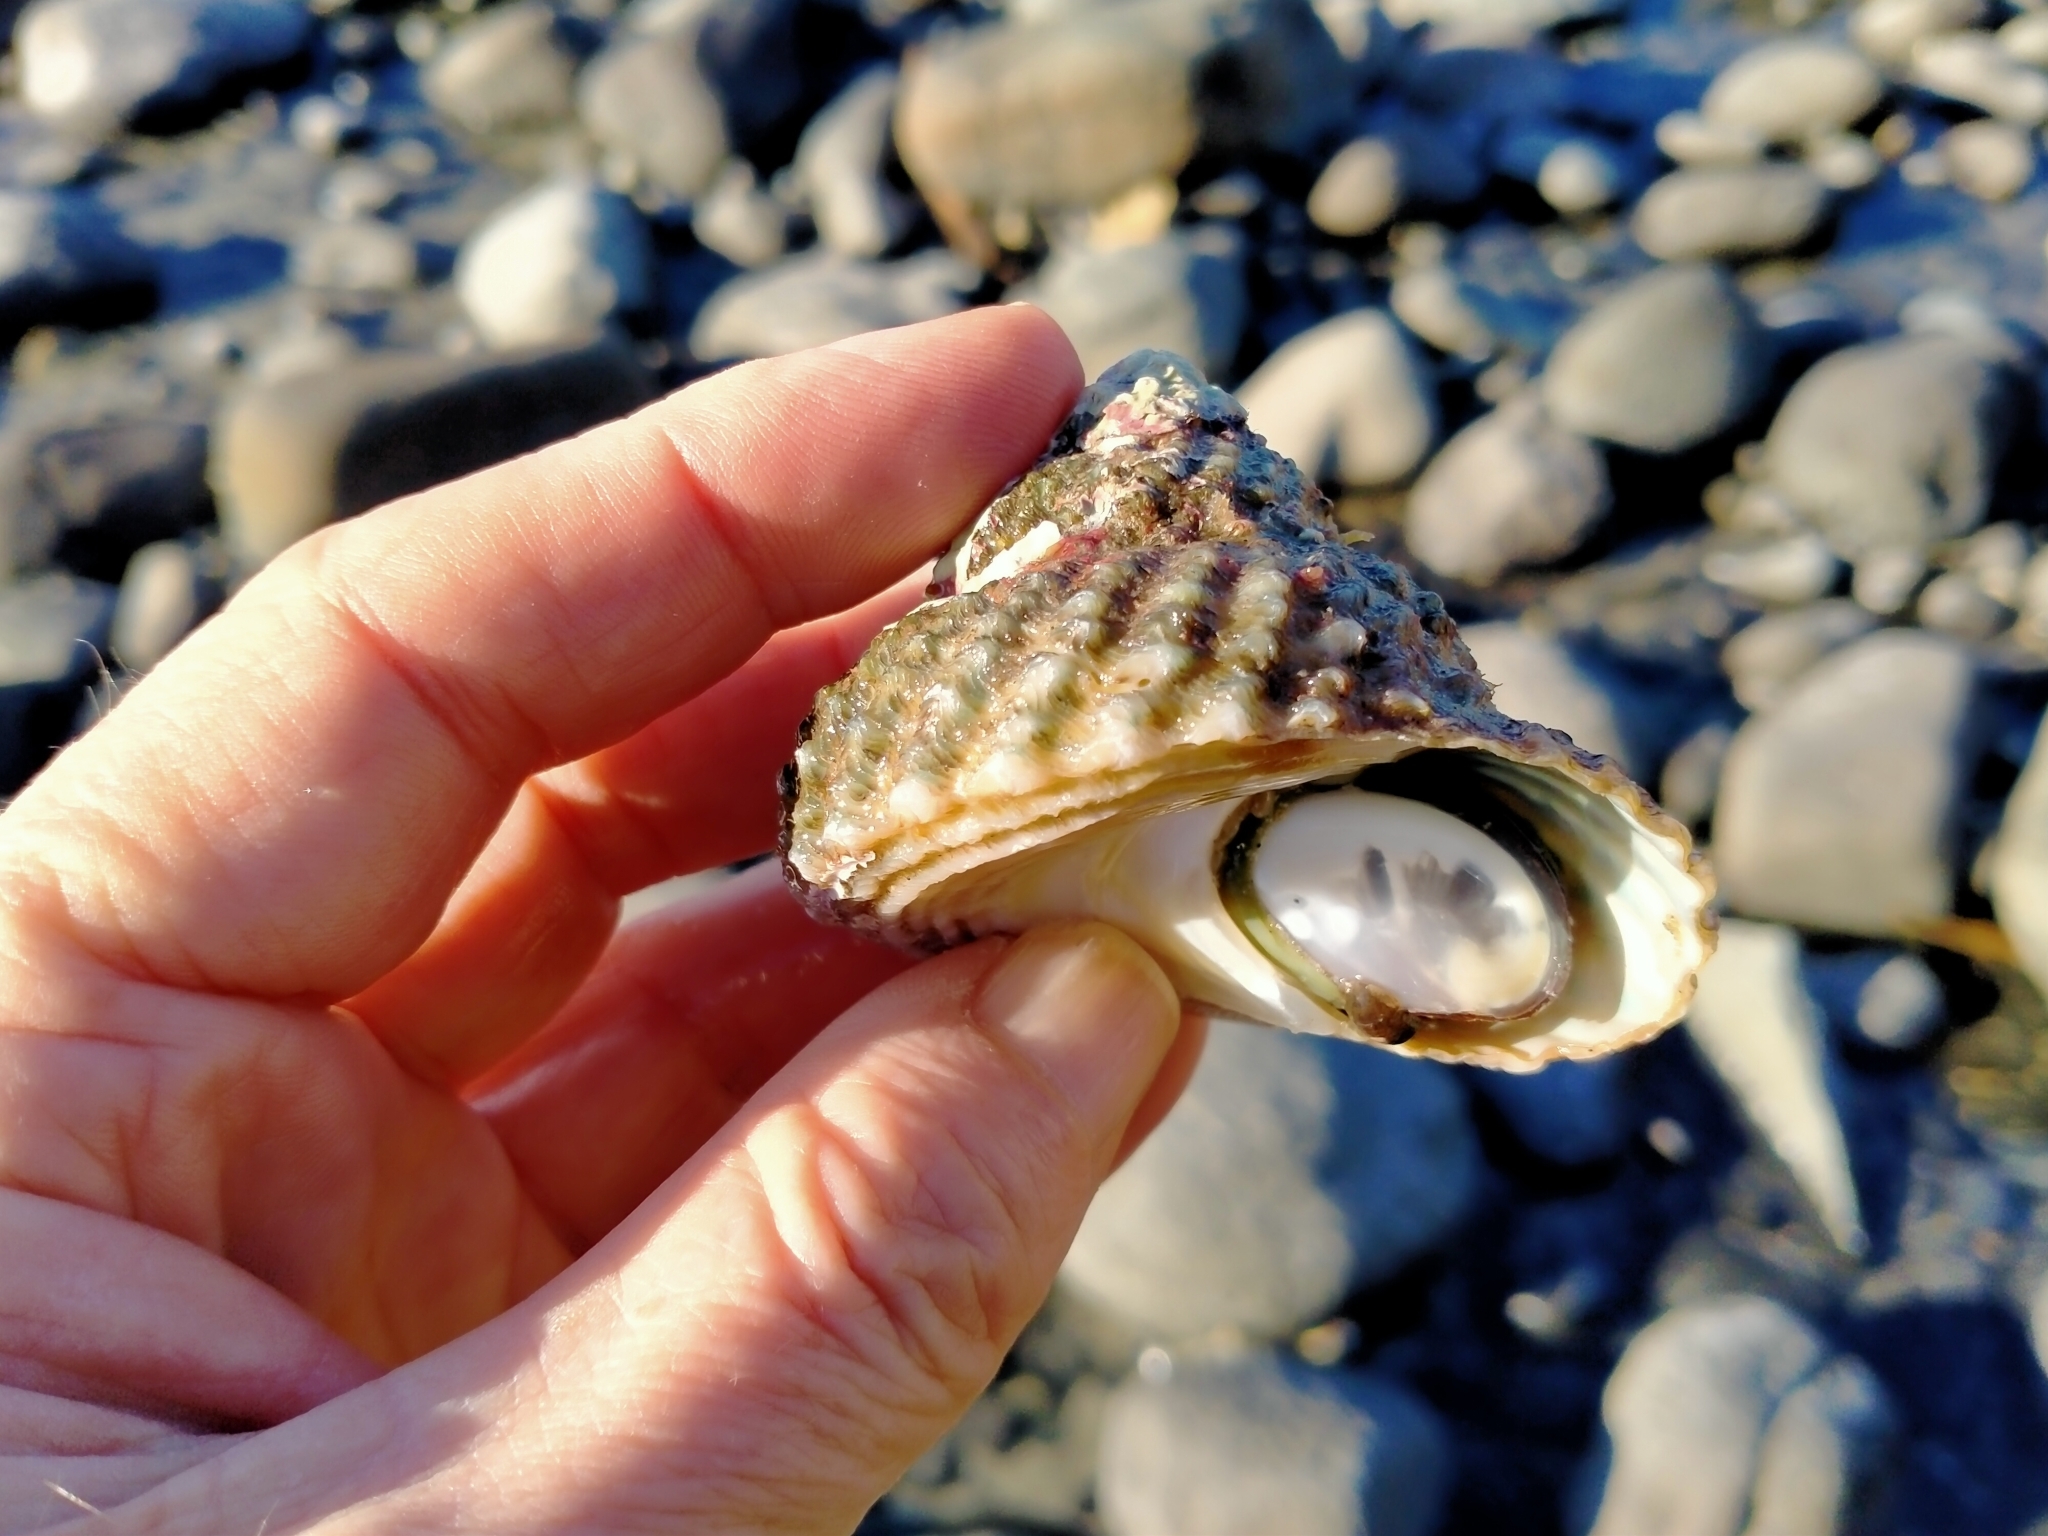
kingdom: Animalia
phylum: Mollusca
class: Gastropoda
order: Trochida
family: Turbinidae
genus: Cookia
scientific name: Cookia sulcata
